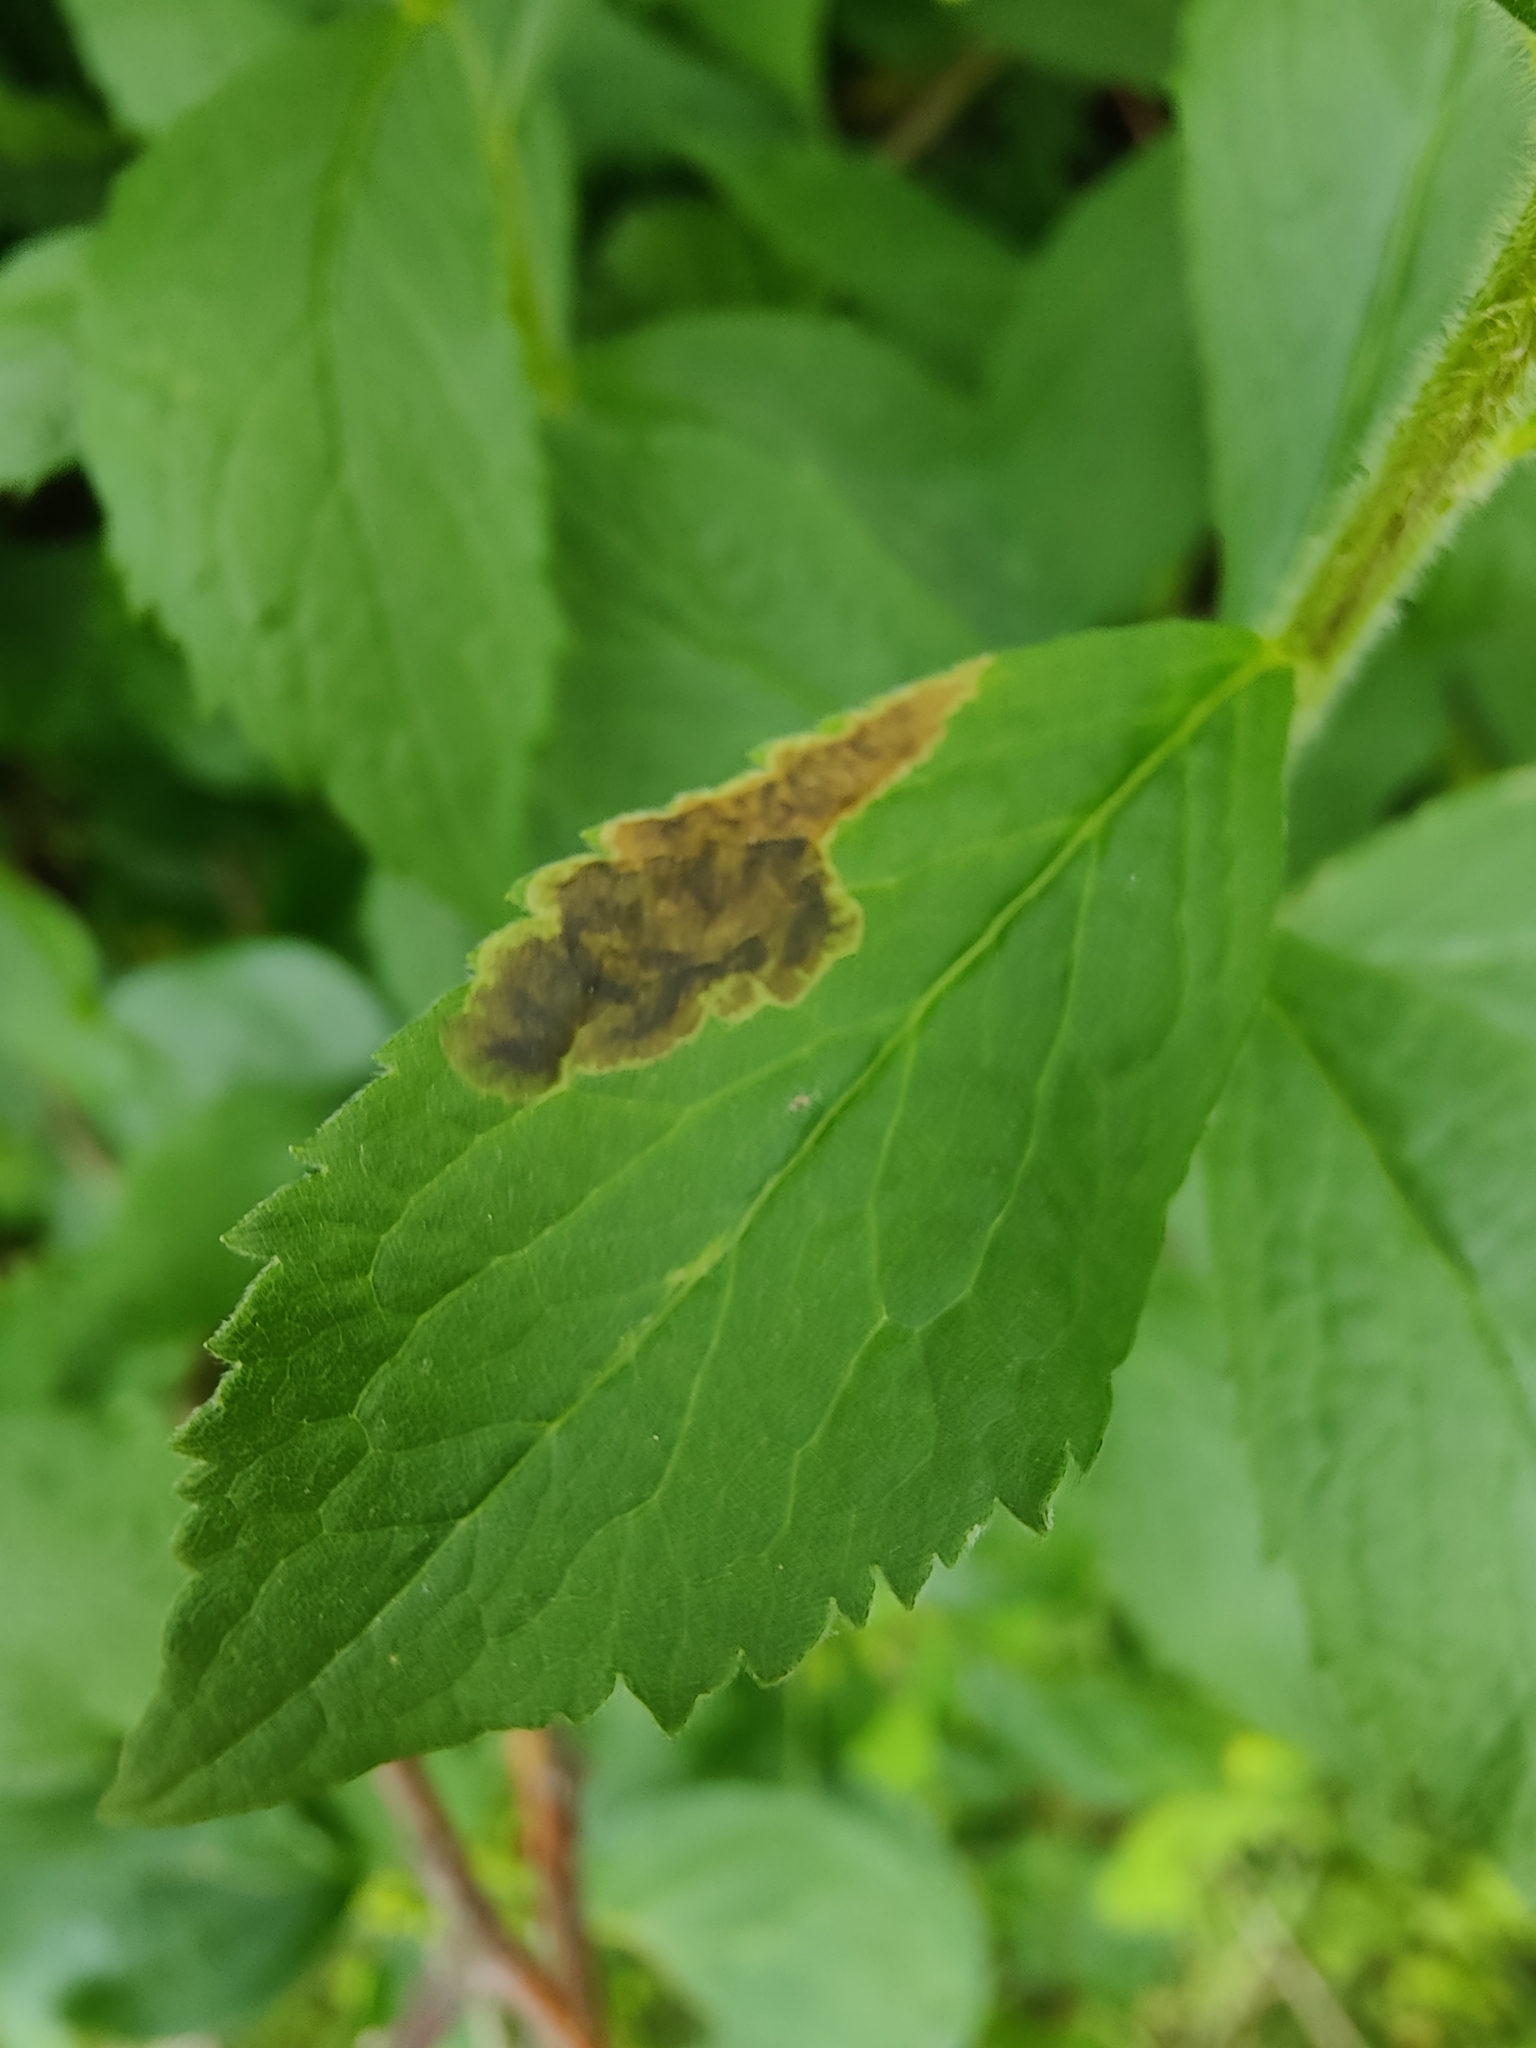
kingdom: Animalia
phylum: Arthropoda
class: Insecta
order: Diptera
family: Agromyzidae
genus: Nemorimyza
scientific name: Nemorimyza posticata
